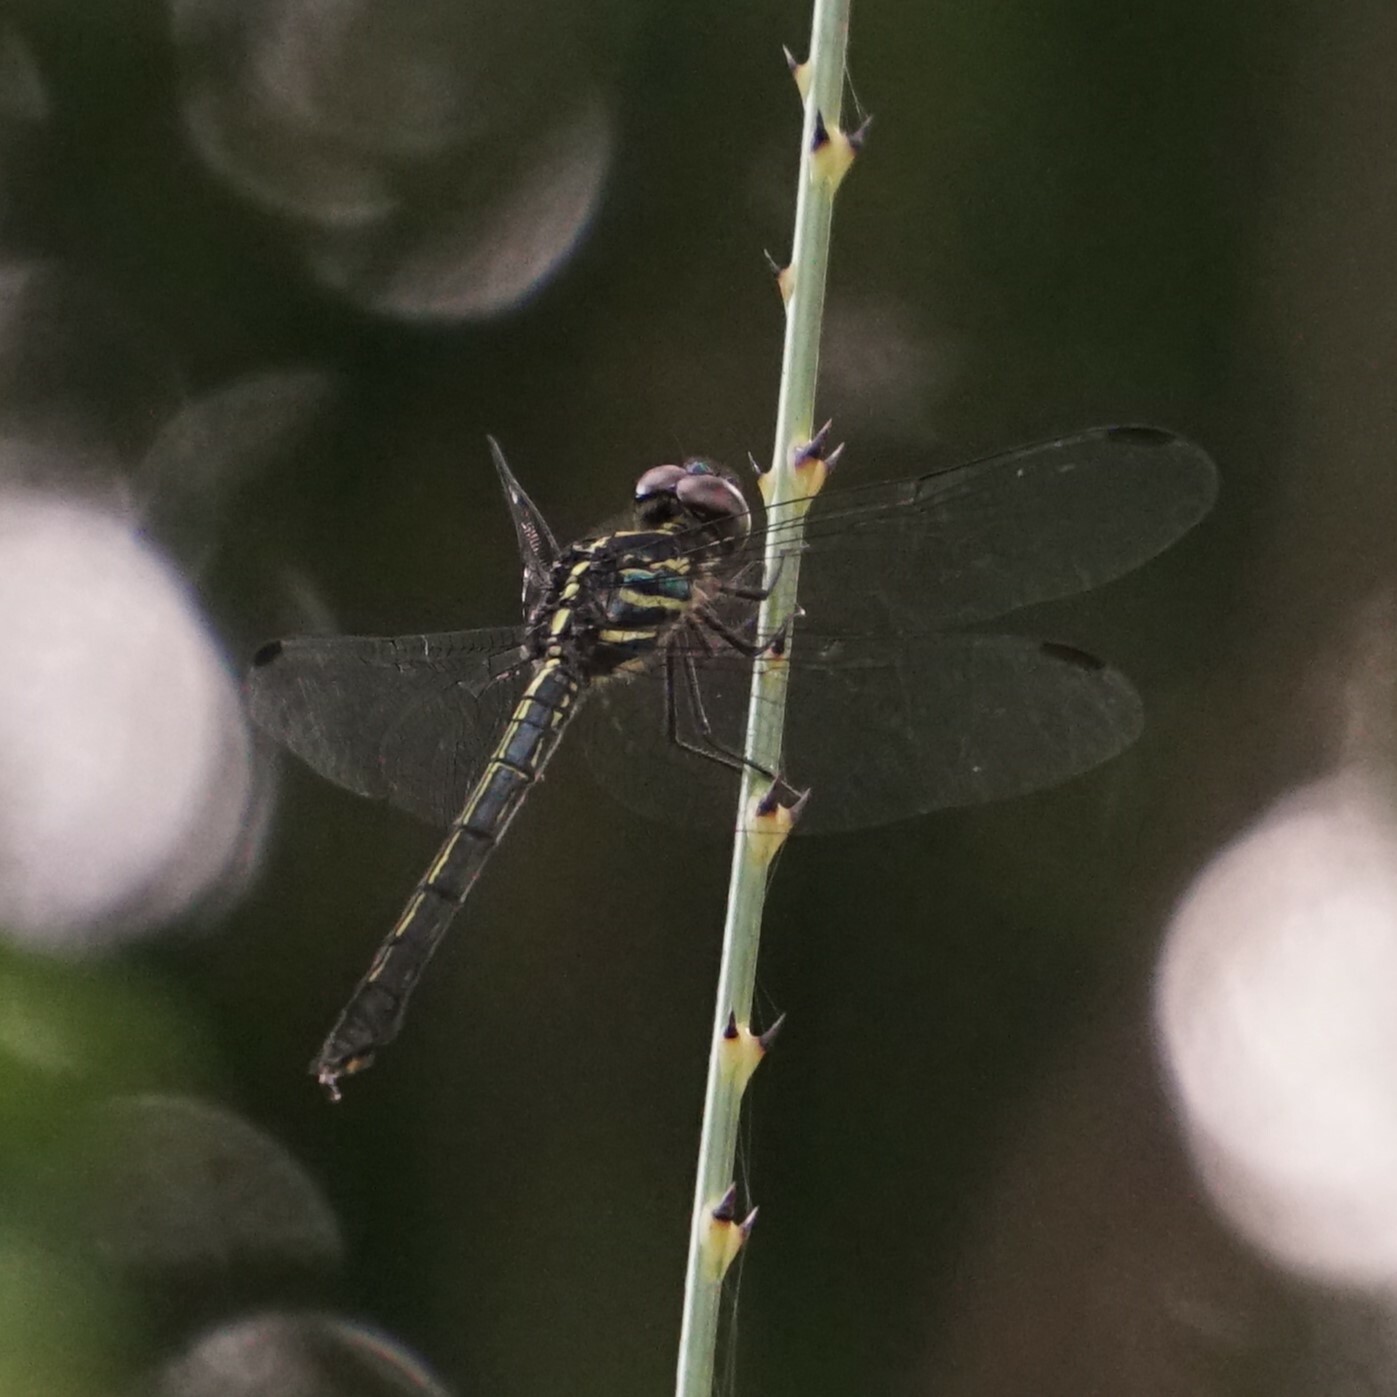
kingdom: Animalia
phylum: Arthropoda
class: Insecta
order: Odonata
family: Libellulidae
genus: Cratilla
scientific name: Cratilla lineata
